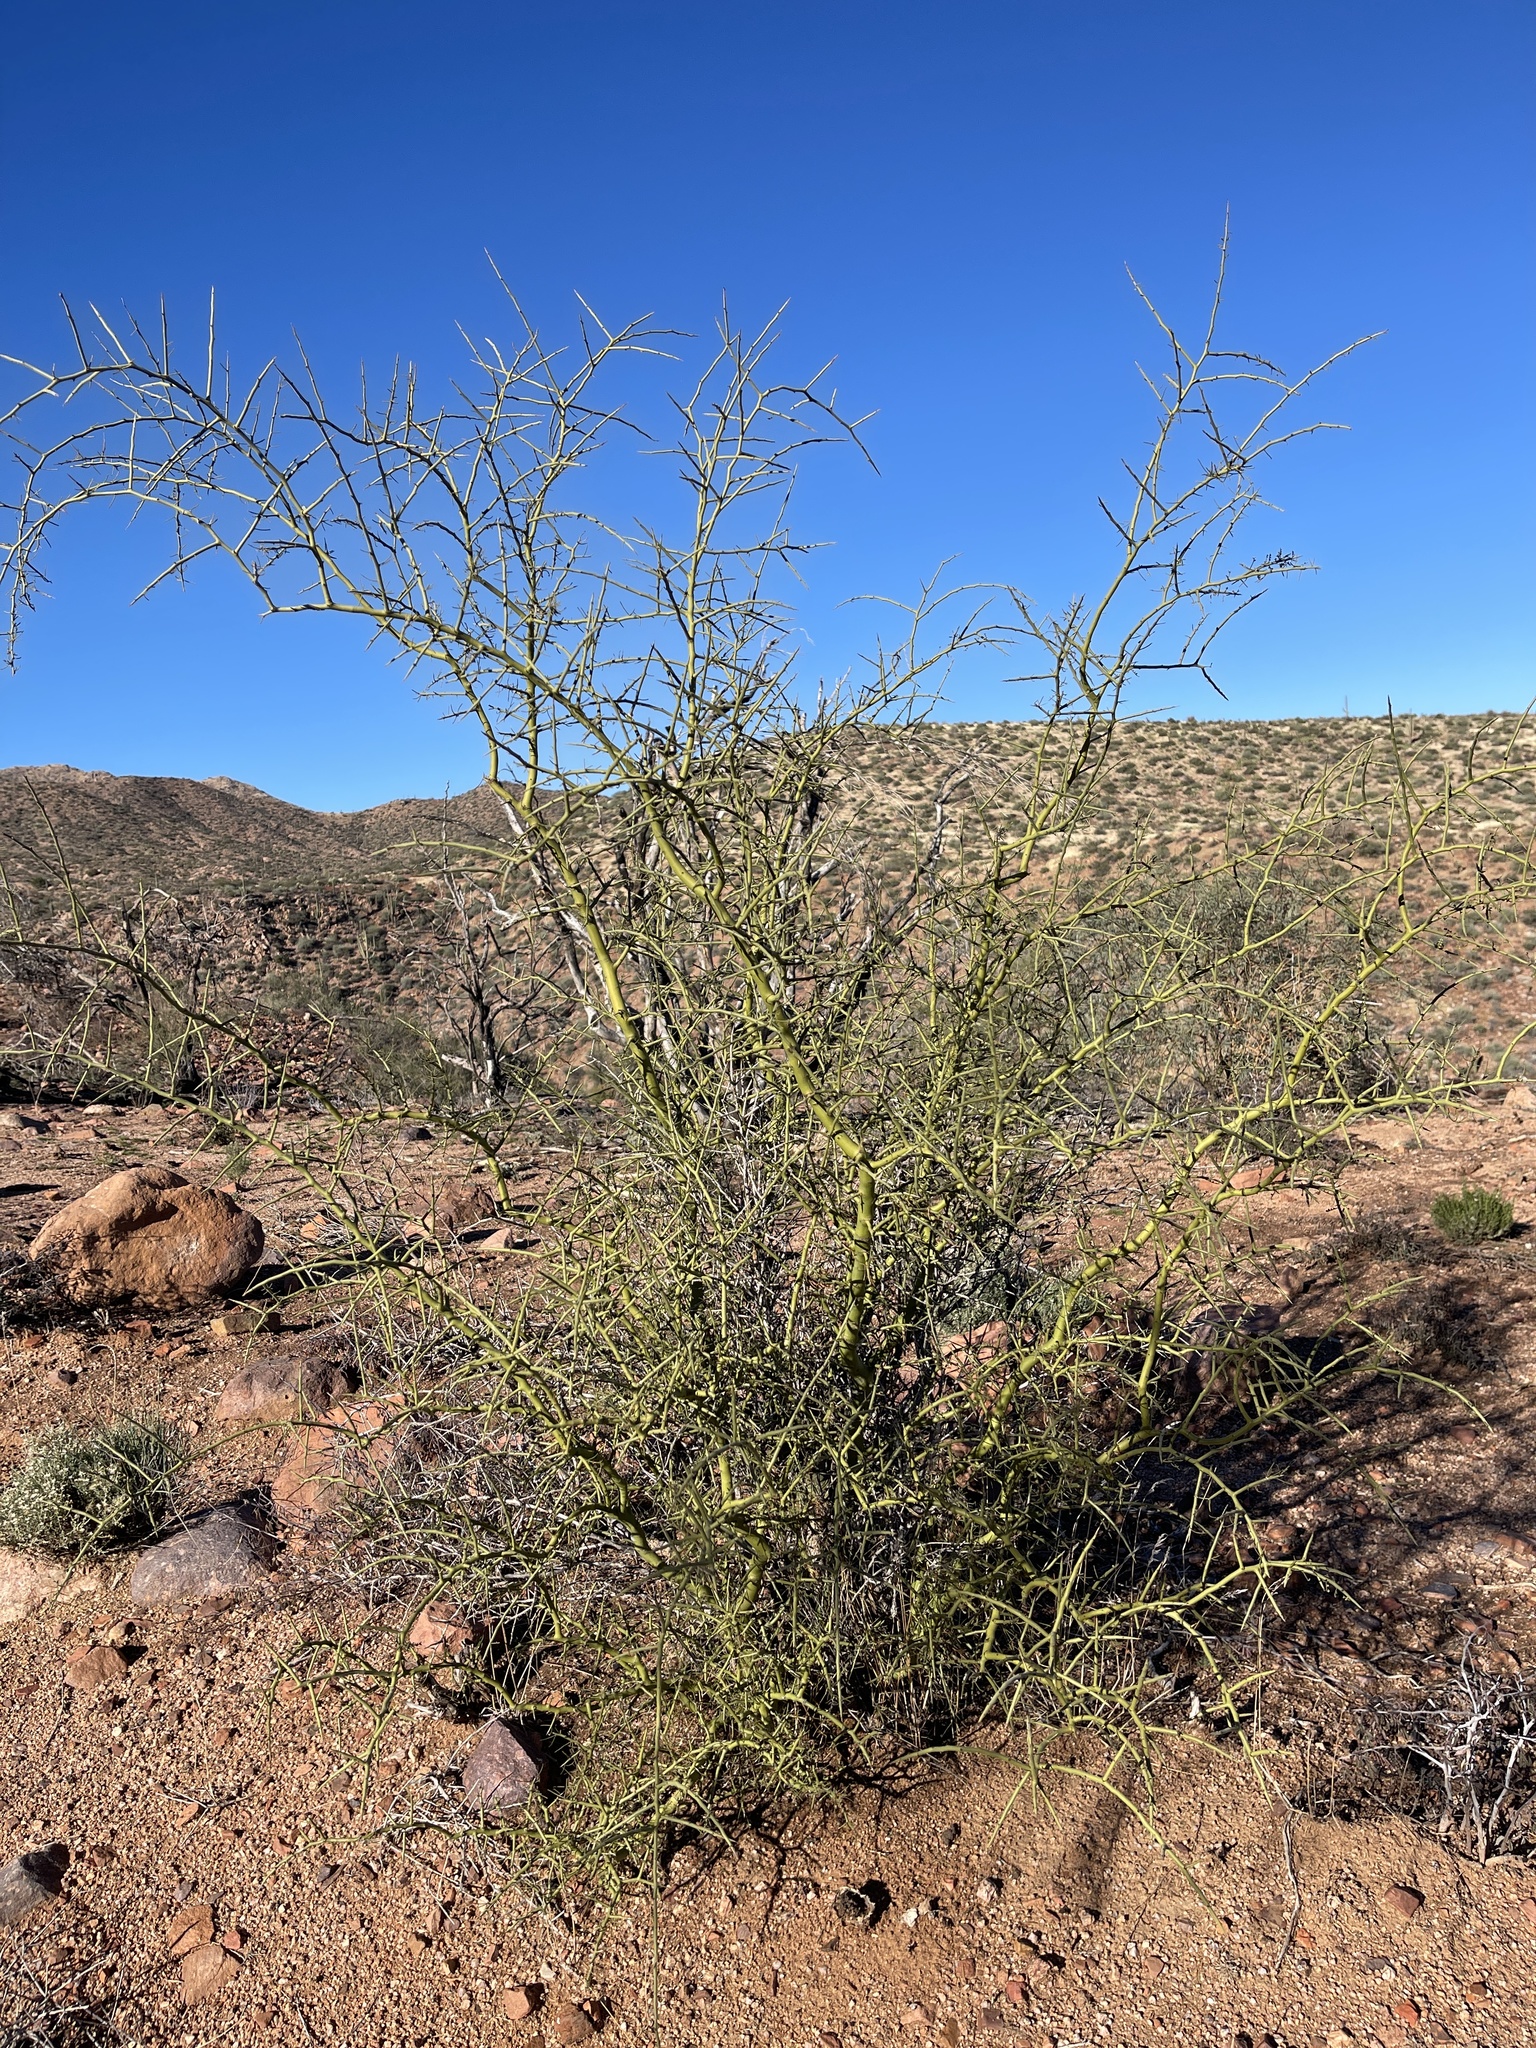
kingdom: Plantae
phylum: Tracheophyta
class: Magnoliopsida
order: Fabales
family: Fabaceae
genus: Parkinsonia
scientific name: Parkinsonia microphylla
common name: Yellow paloverde
